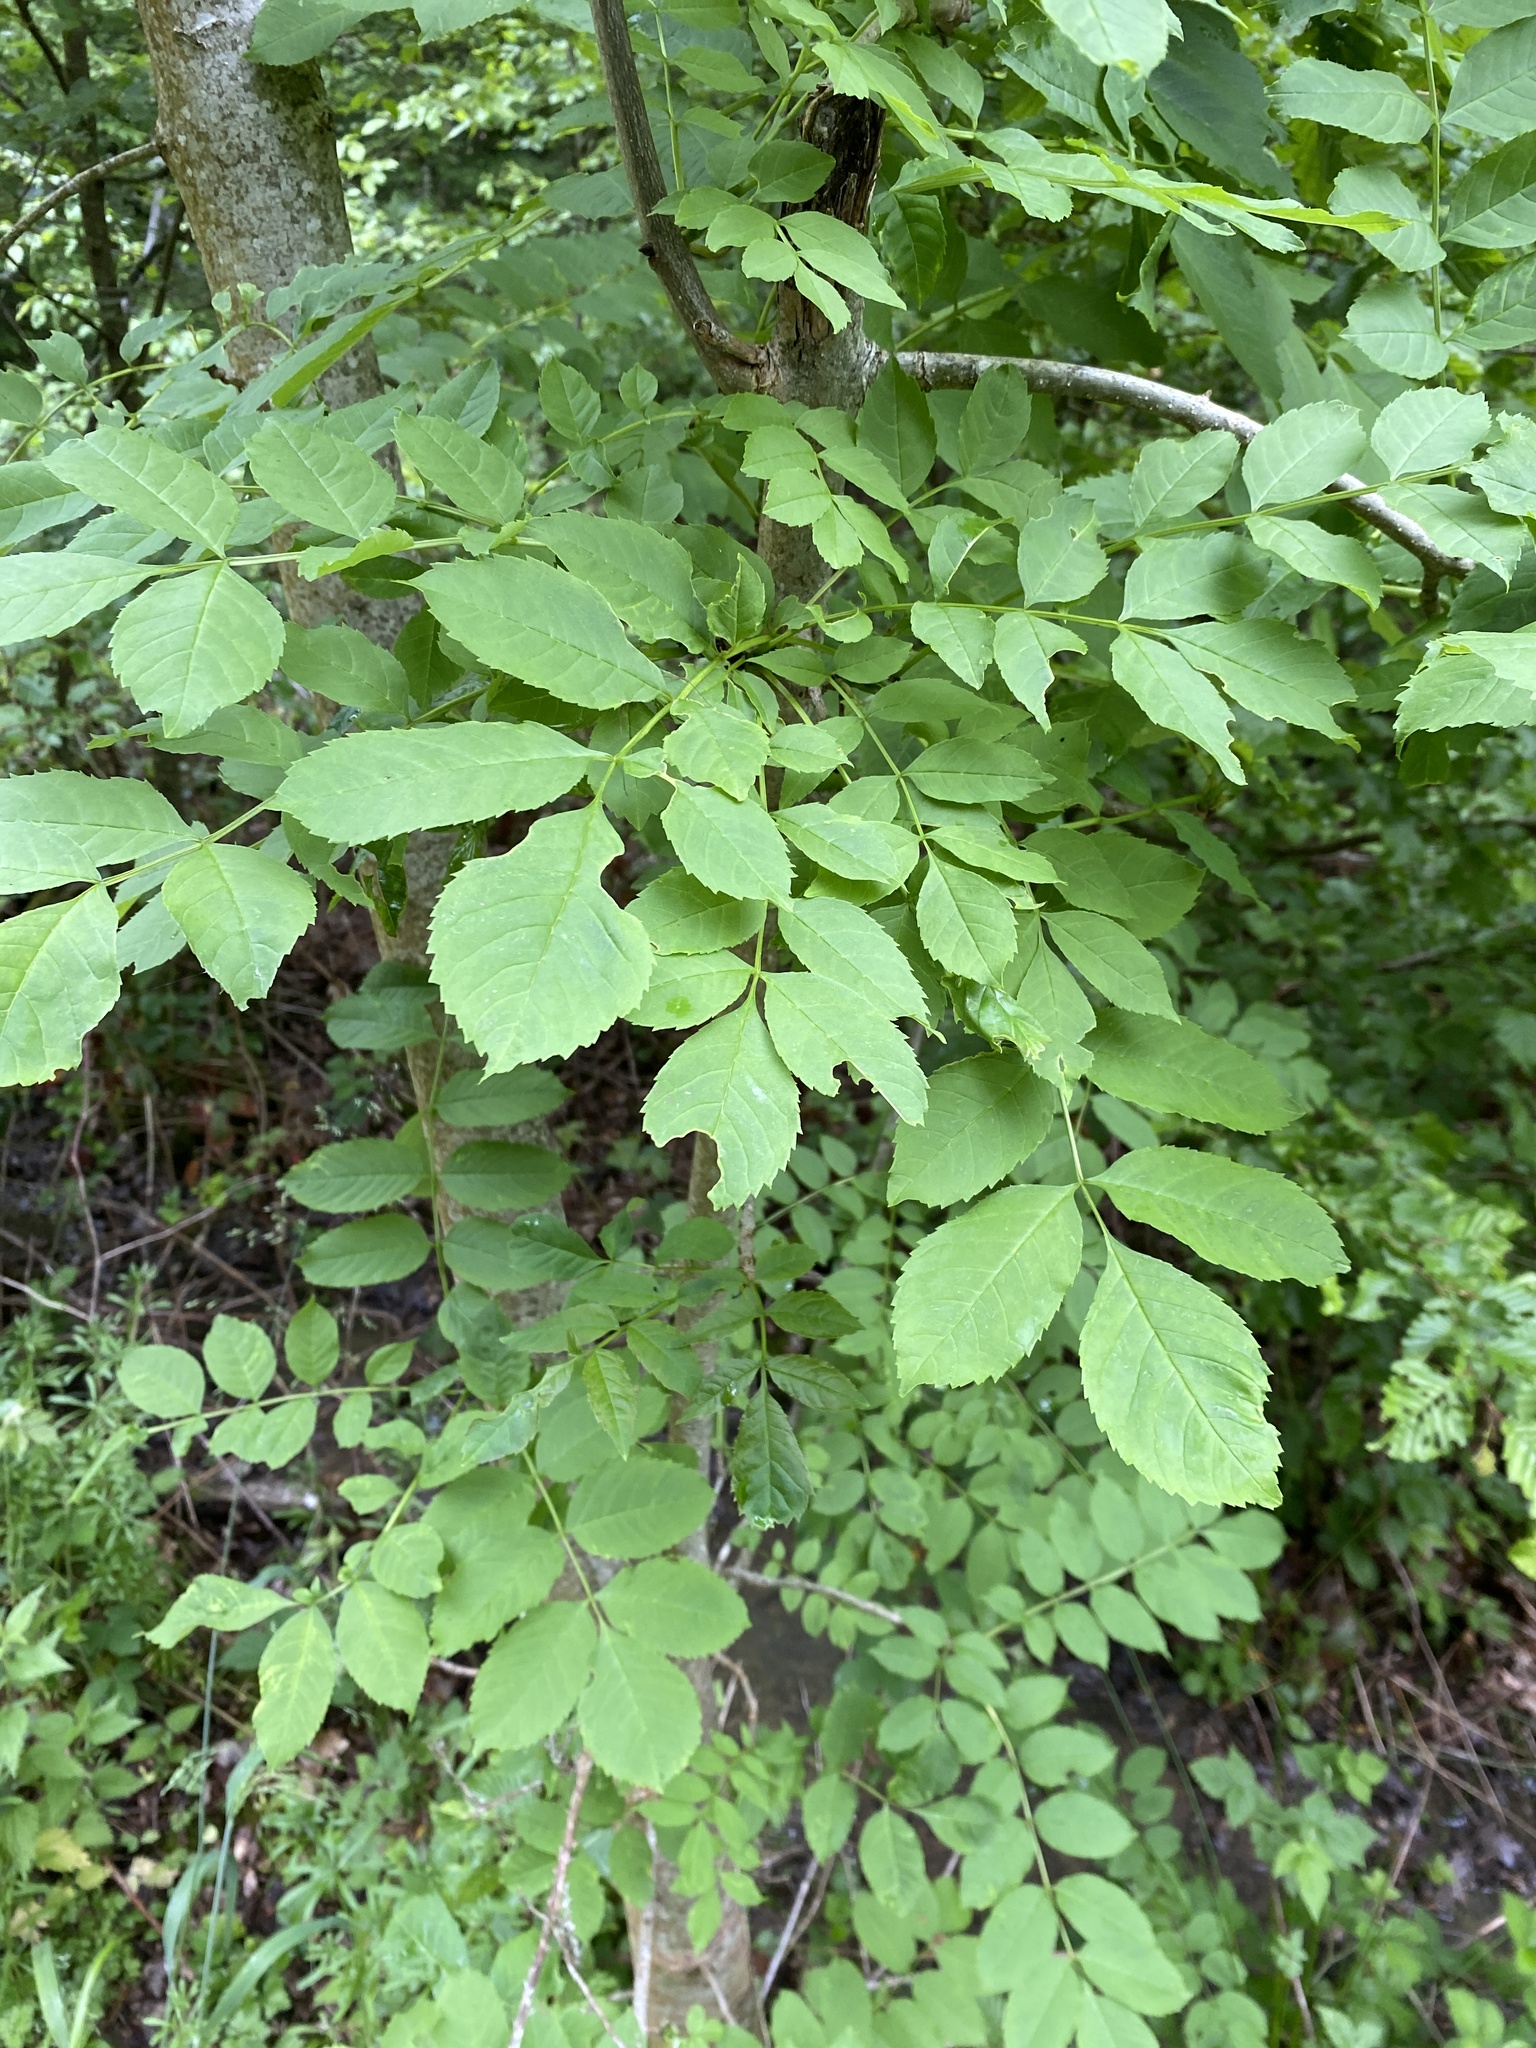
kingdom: Plantae
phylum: Tracheophyta
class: Magnoliopsida
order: Lamiales
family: Oleaceae
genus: Fraxinus
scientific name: Fraxinus excelsior
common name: European ash
